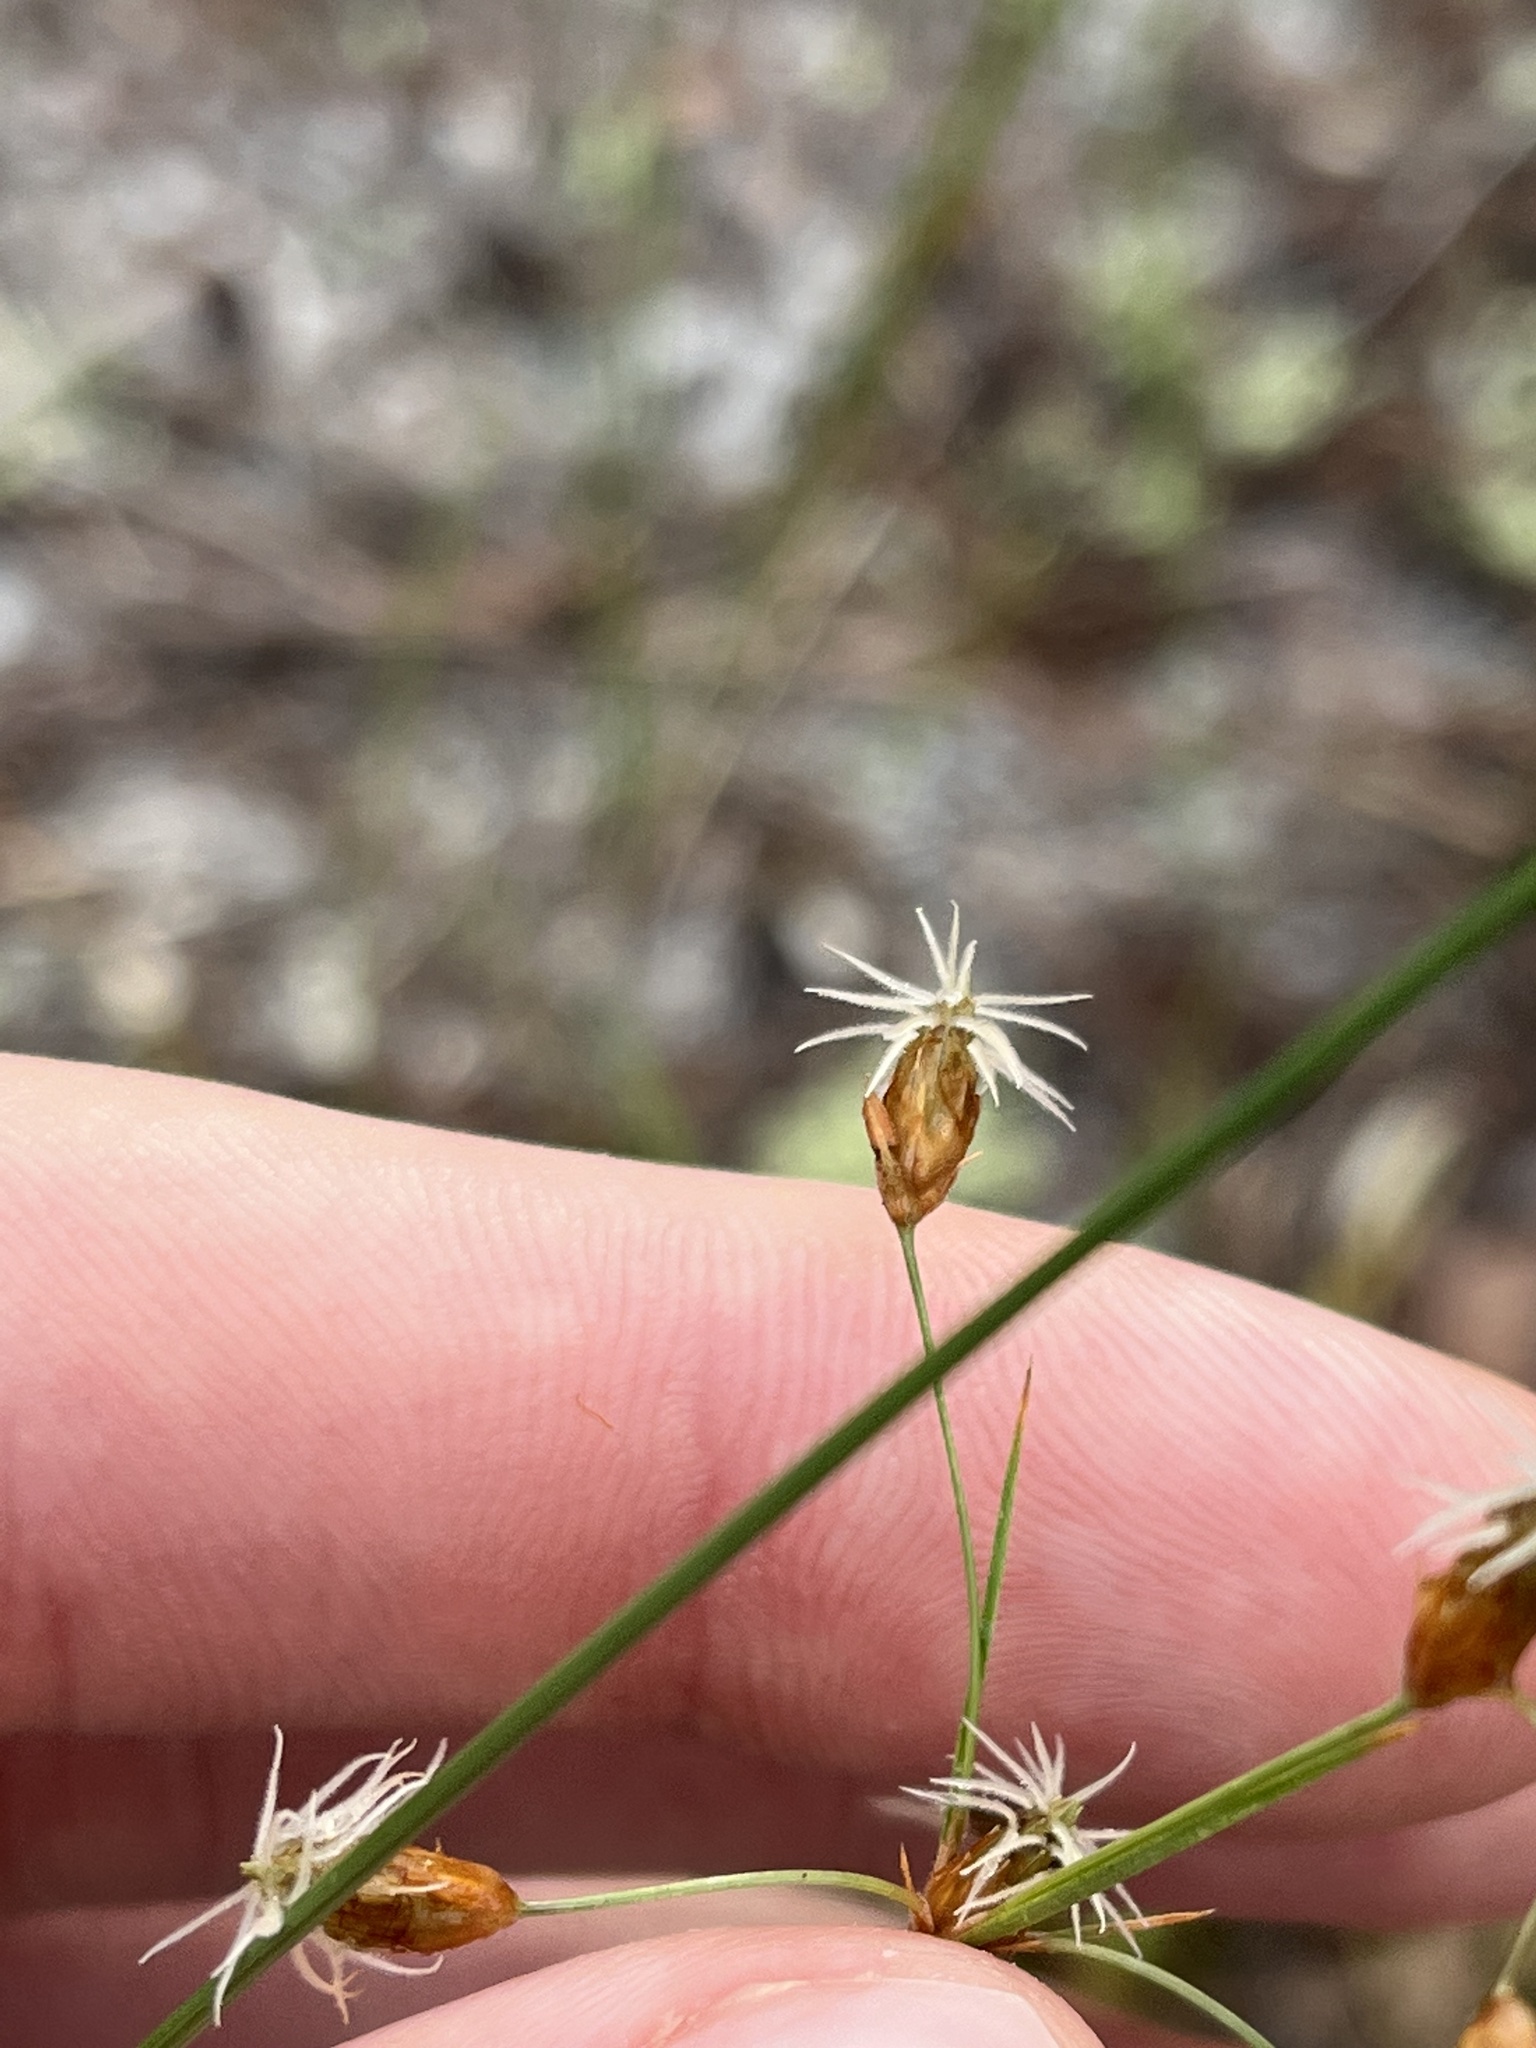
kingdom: Plantae
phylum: Tracheophyta
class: Liliopsida
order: Poales
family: Cyperaceae
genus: Fimbristylis
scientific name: Fimbristylis puberula
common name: Hairy fimbristylis
